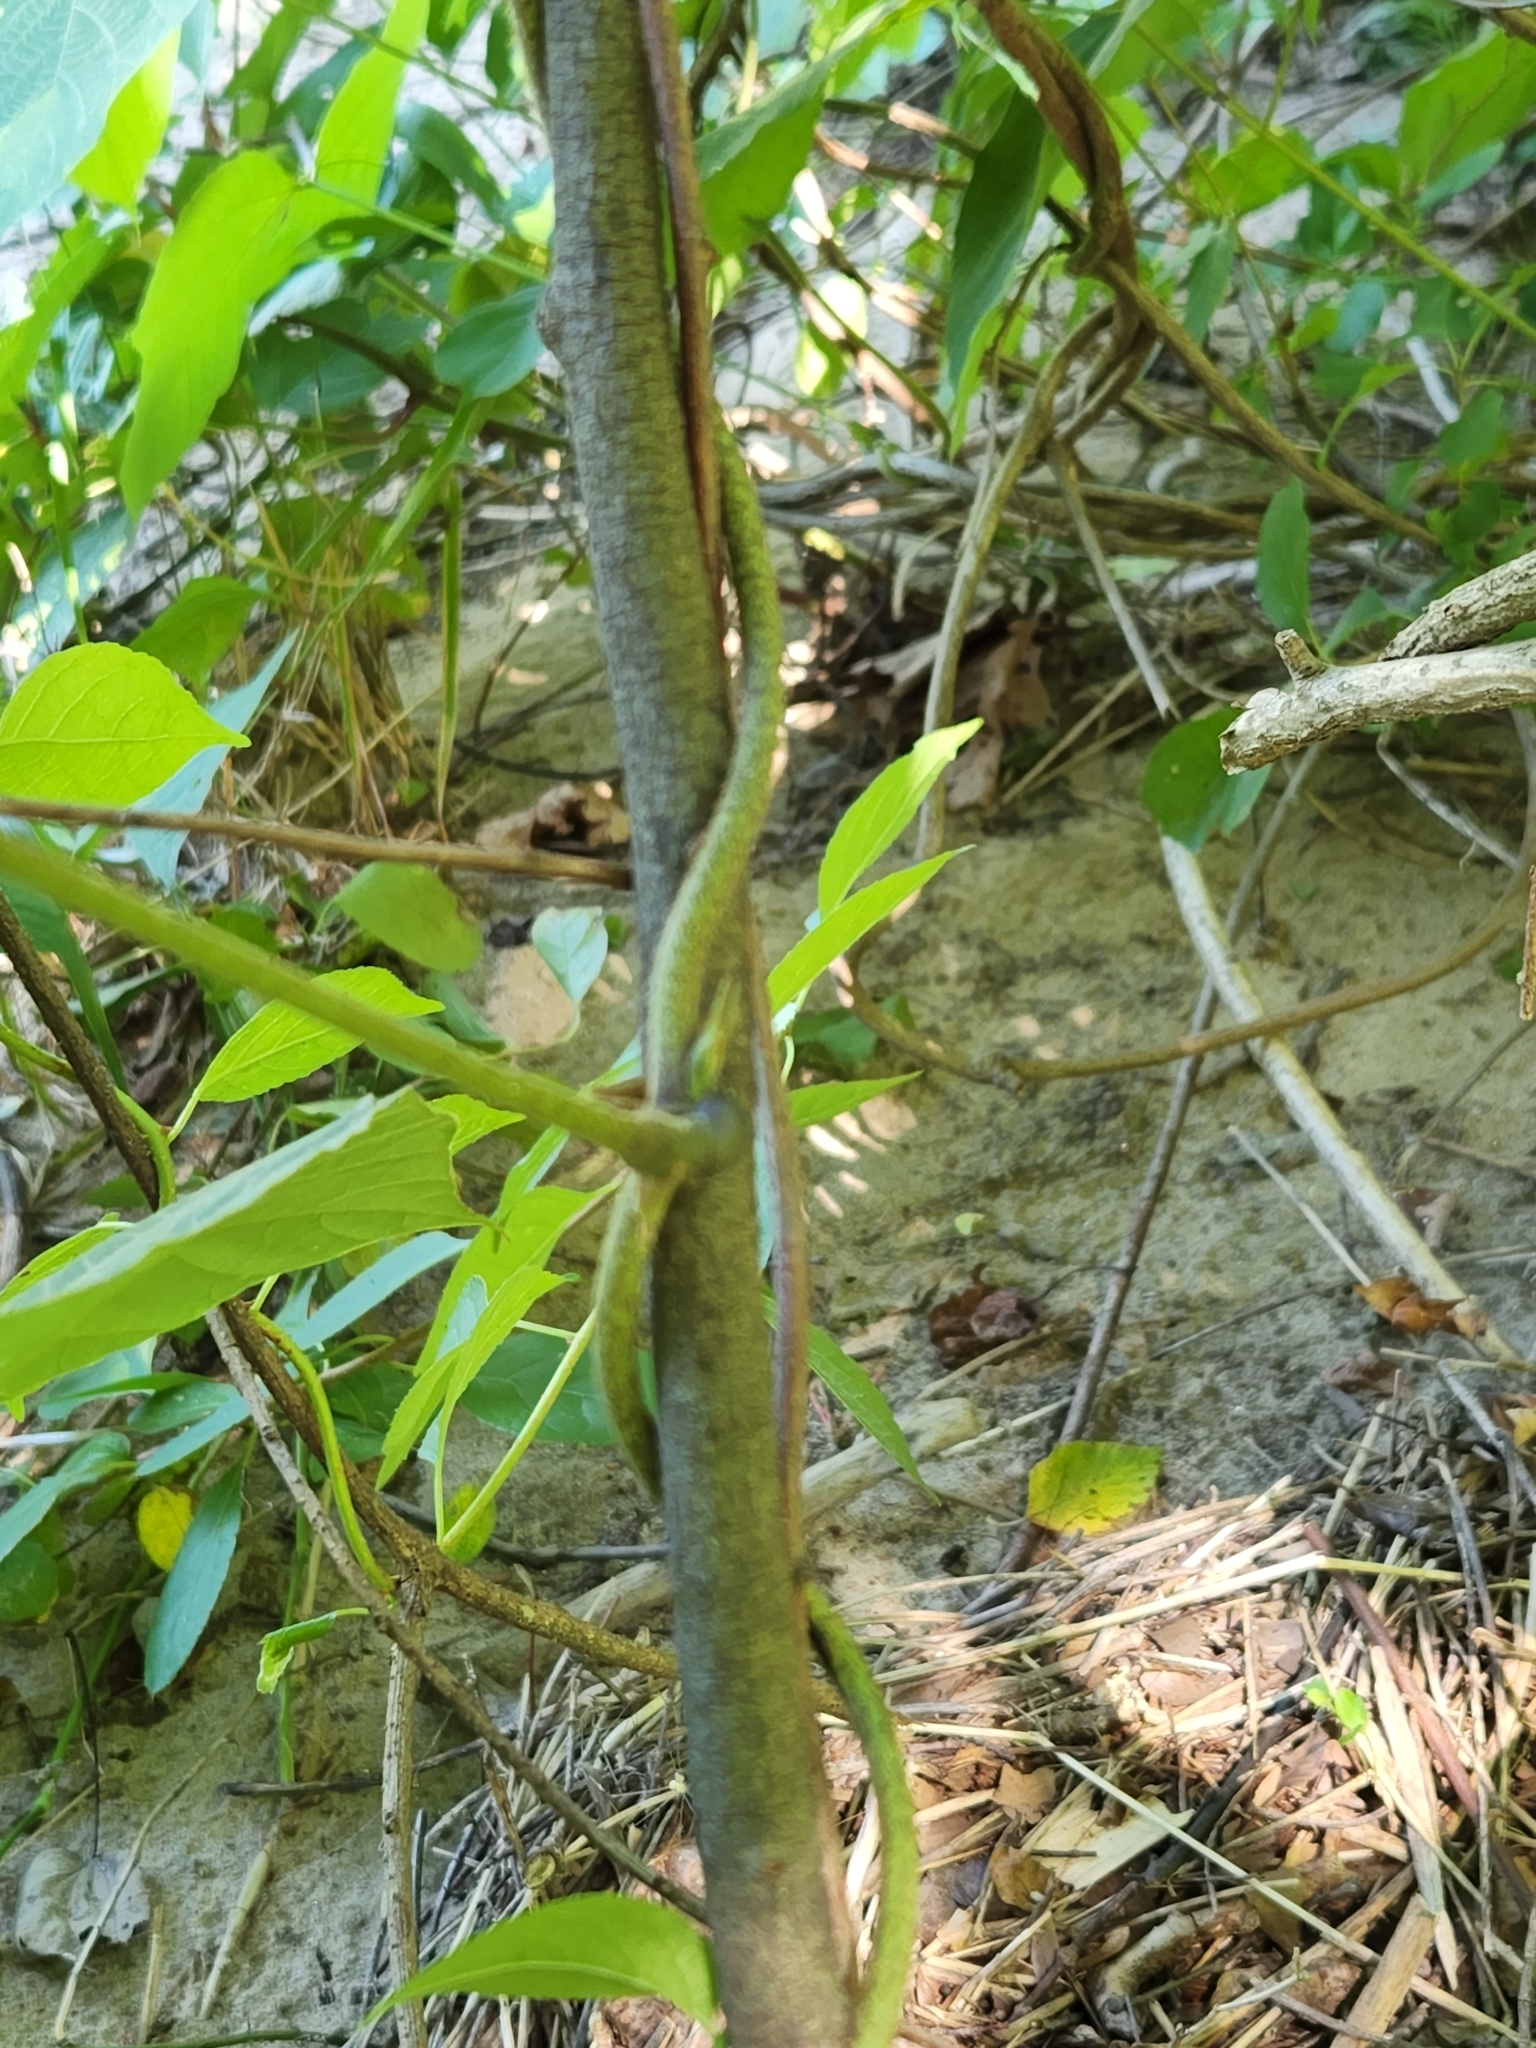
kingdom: Plantae
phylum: Tracheophyta
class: Magnoliopsida
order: Fabales
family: Fabaceae
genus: Pueraria
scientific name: Pueraria montana
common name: Kudzu
